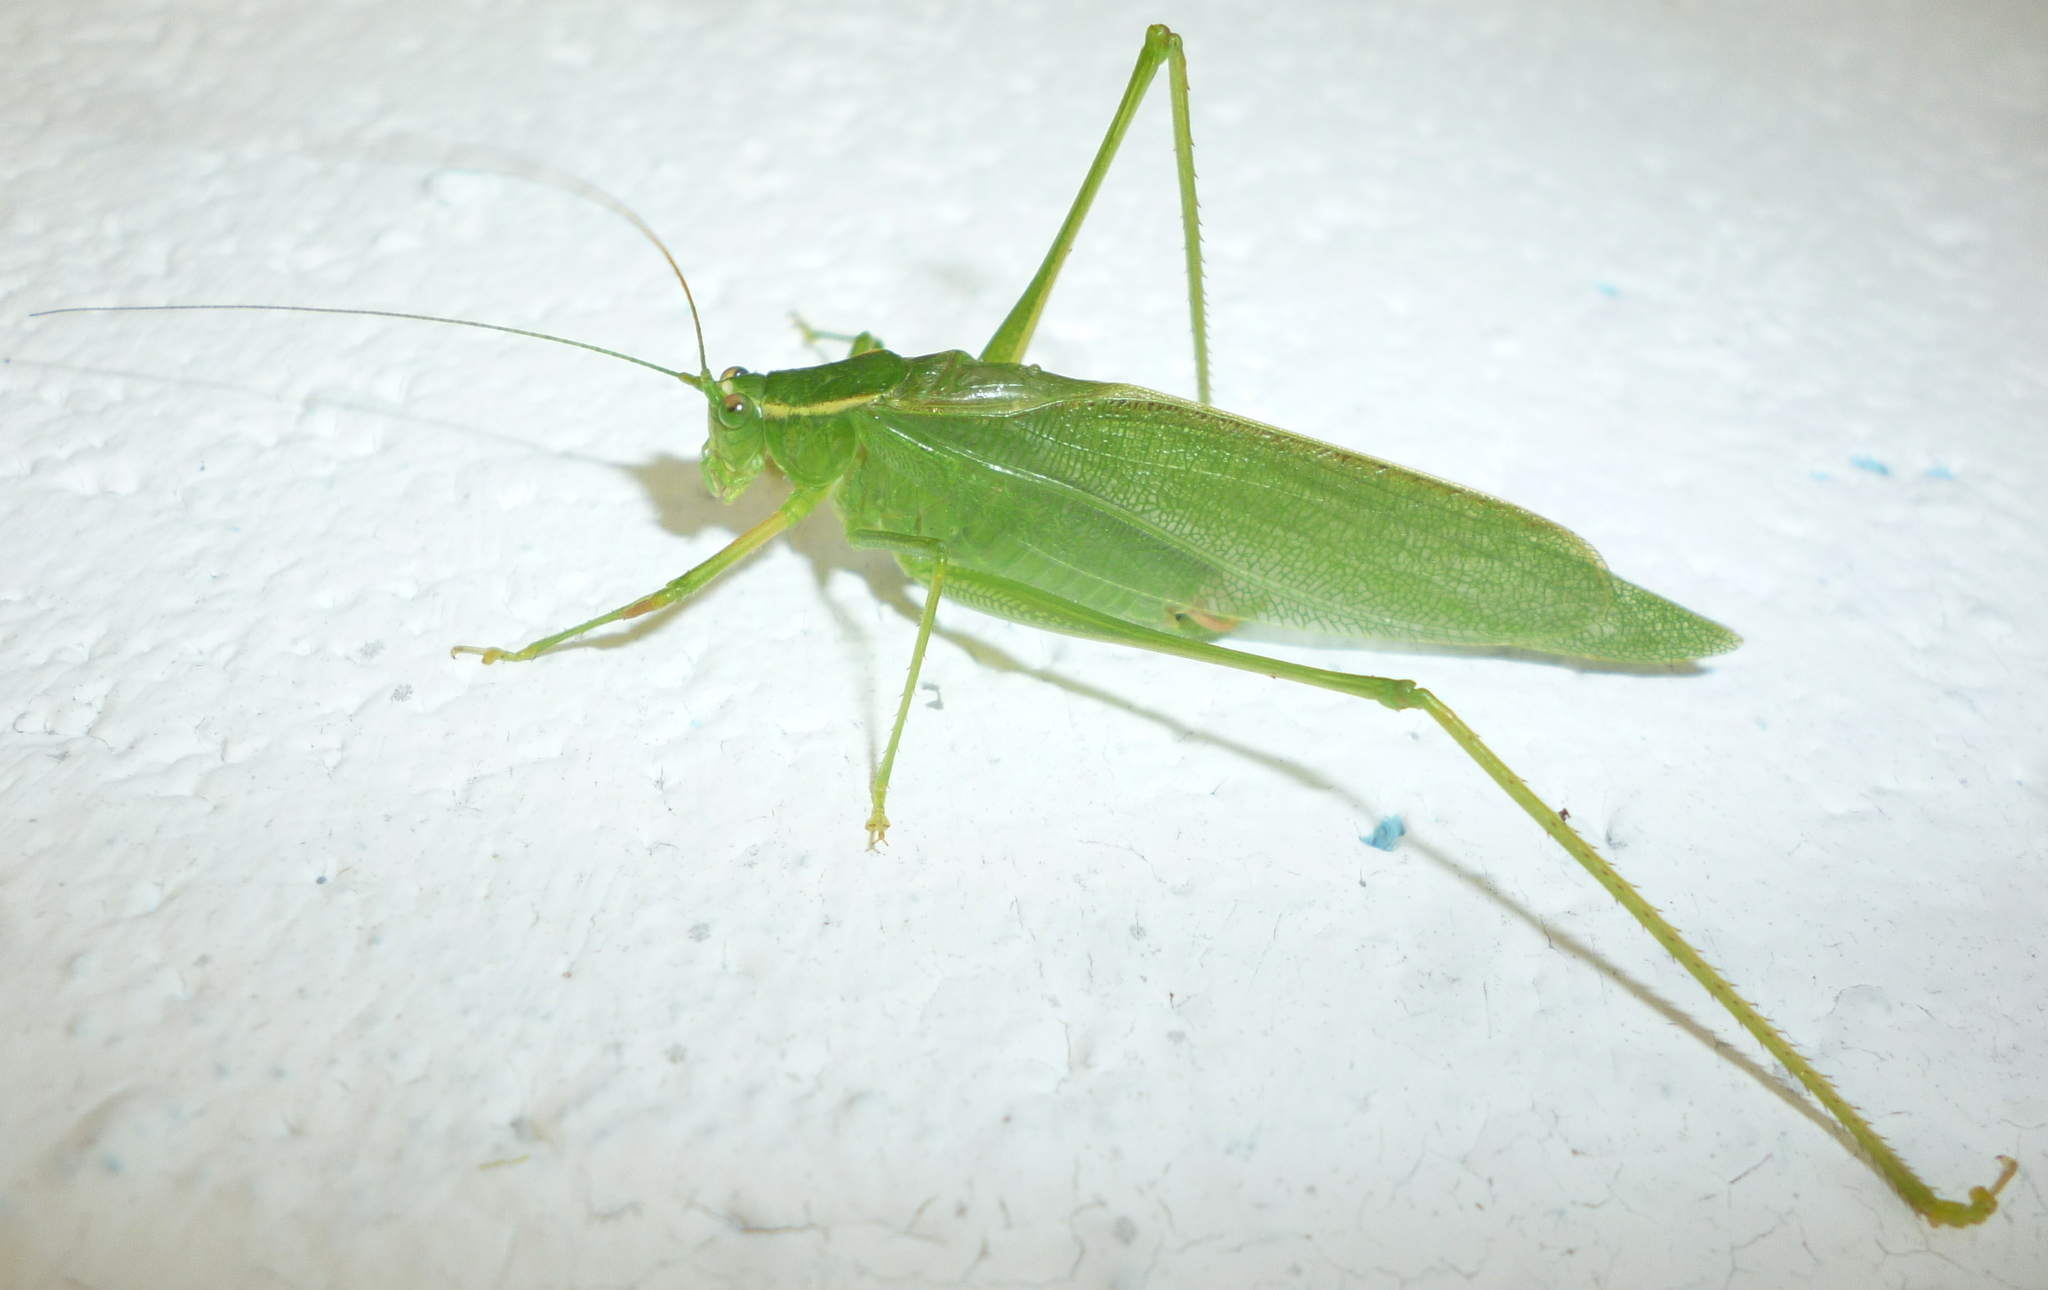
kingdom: Animalia
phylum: Arthropoda
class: Insecta
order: Orthoptera
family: Tettigoniidae
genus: Scudderia
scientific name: Scudderia septentrionalis
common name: Northern bush-katydid
